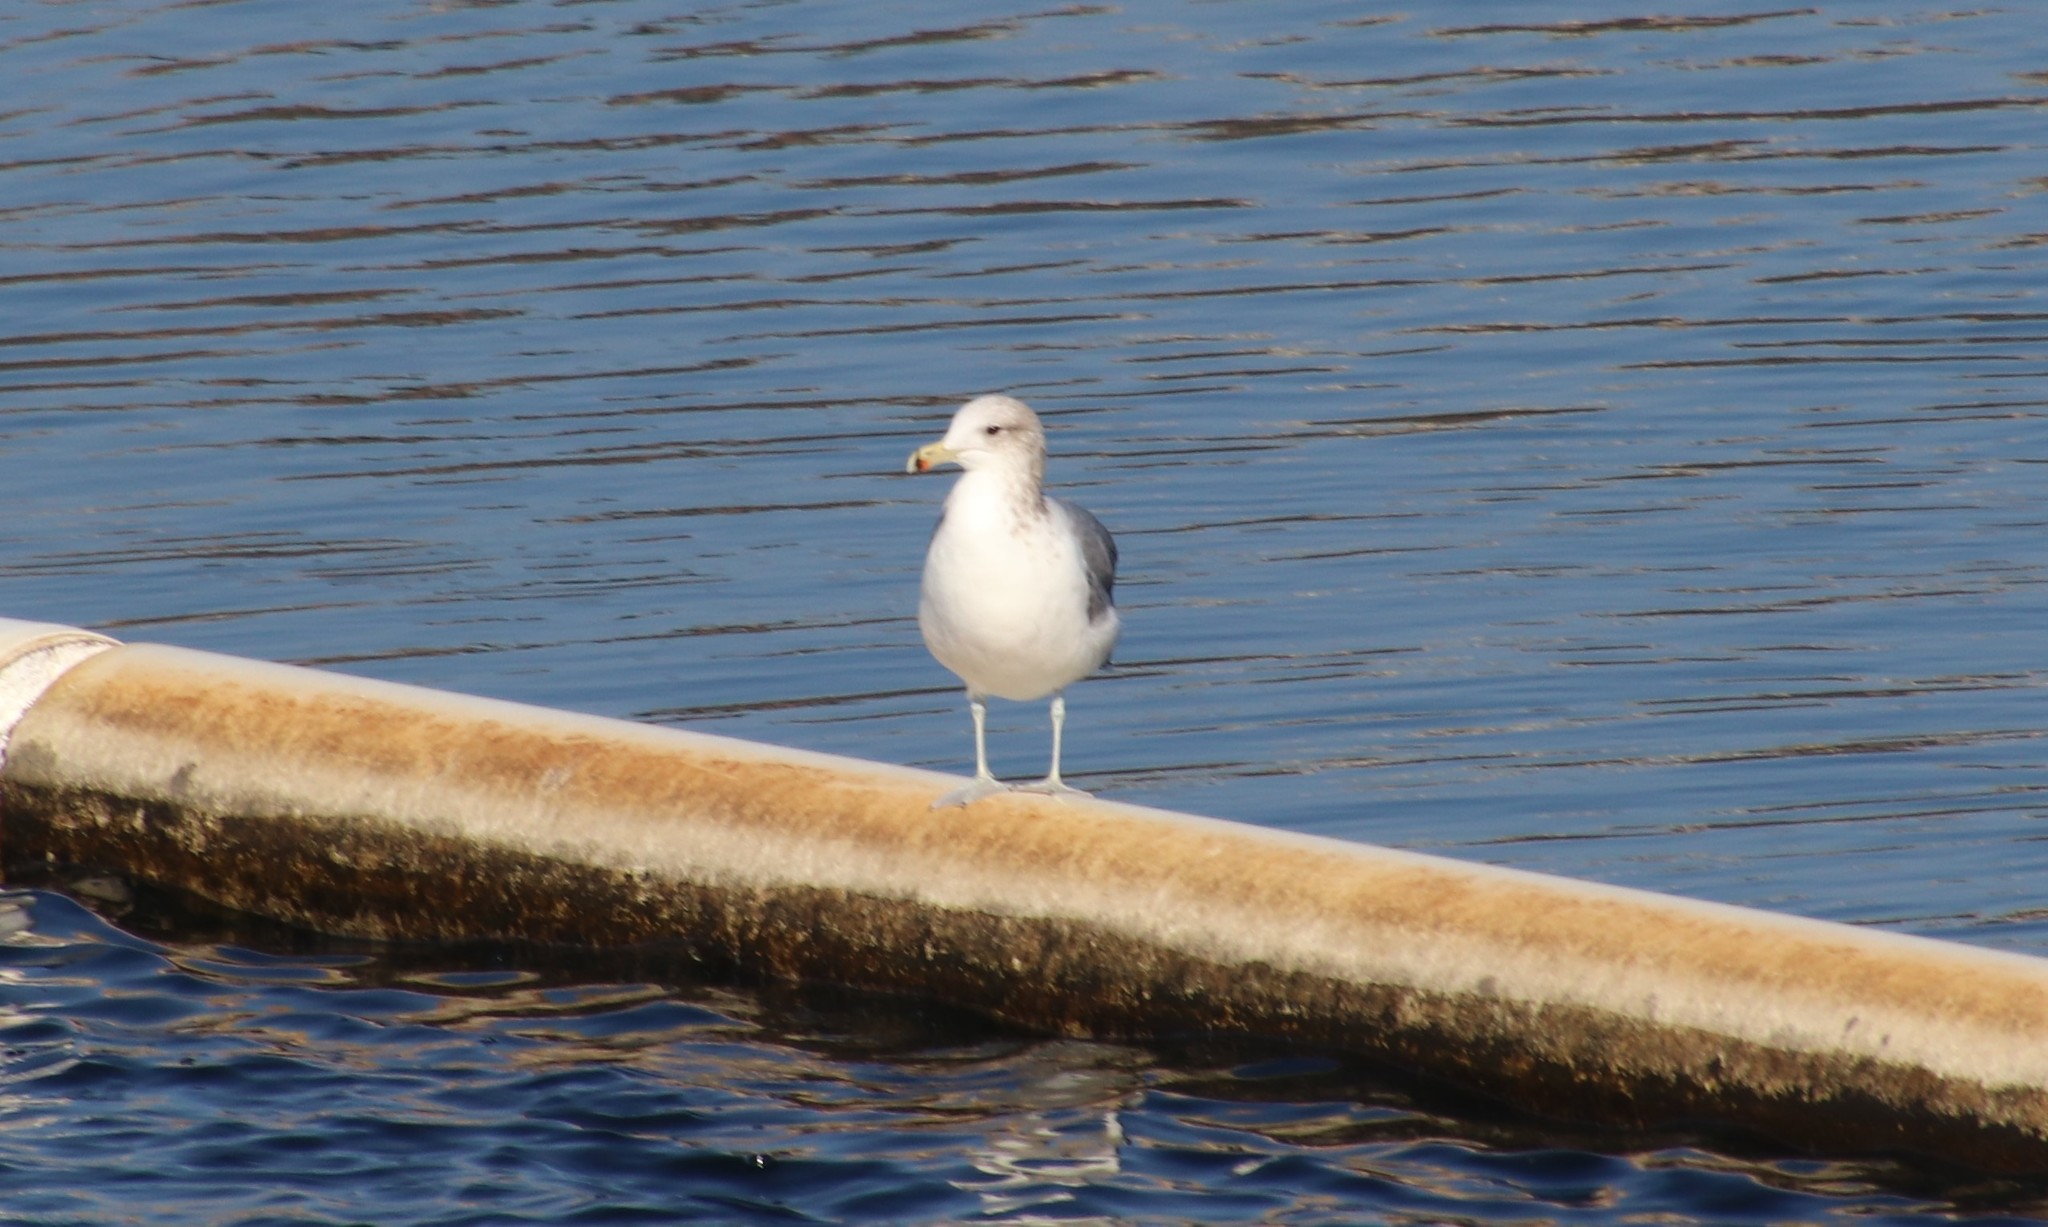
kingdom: Animalia
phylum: Chordata
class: Aves
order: Charadriiformes
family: Laridae
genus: Larus
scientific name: Larus californicus
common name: California gull
